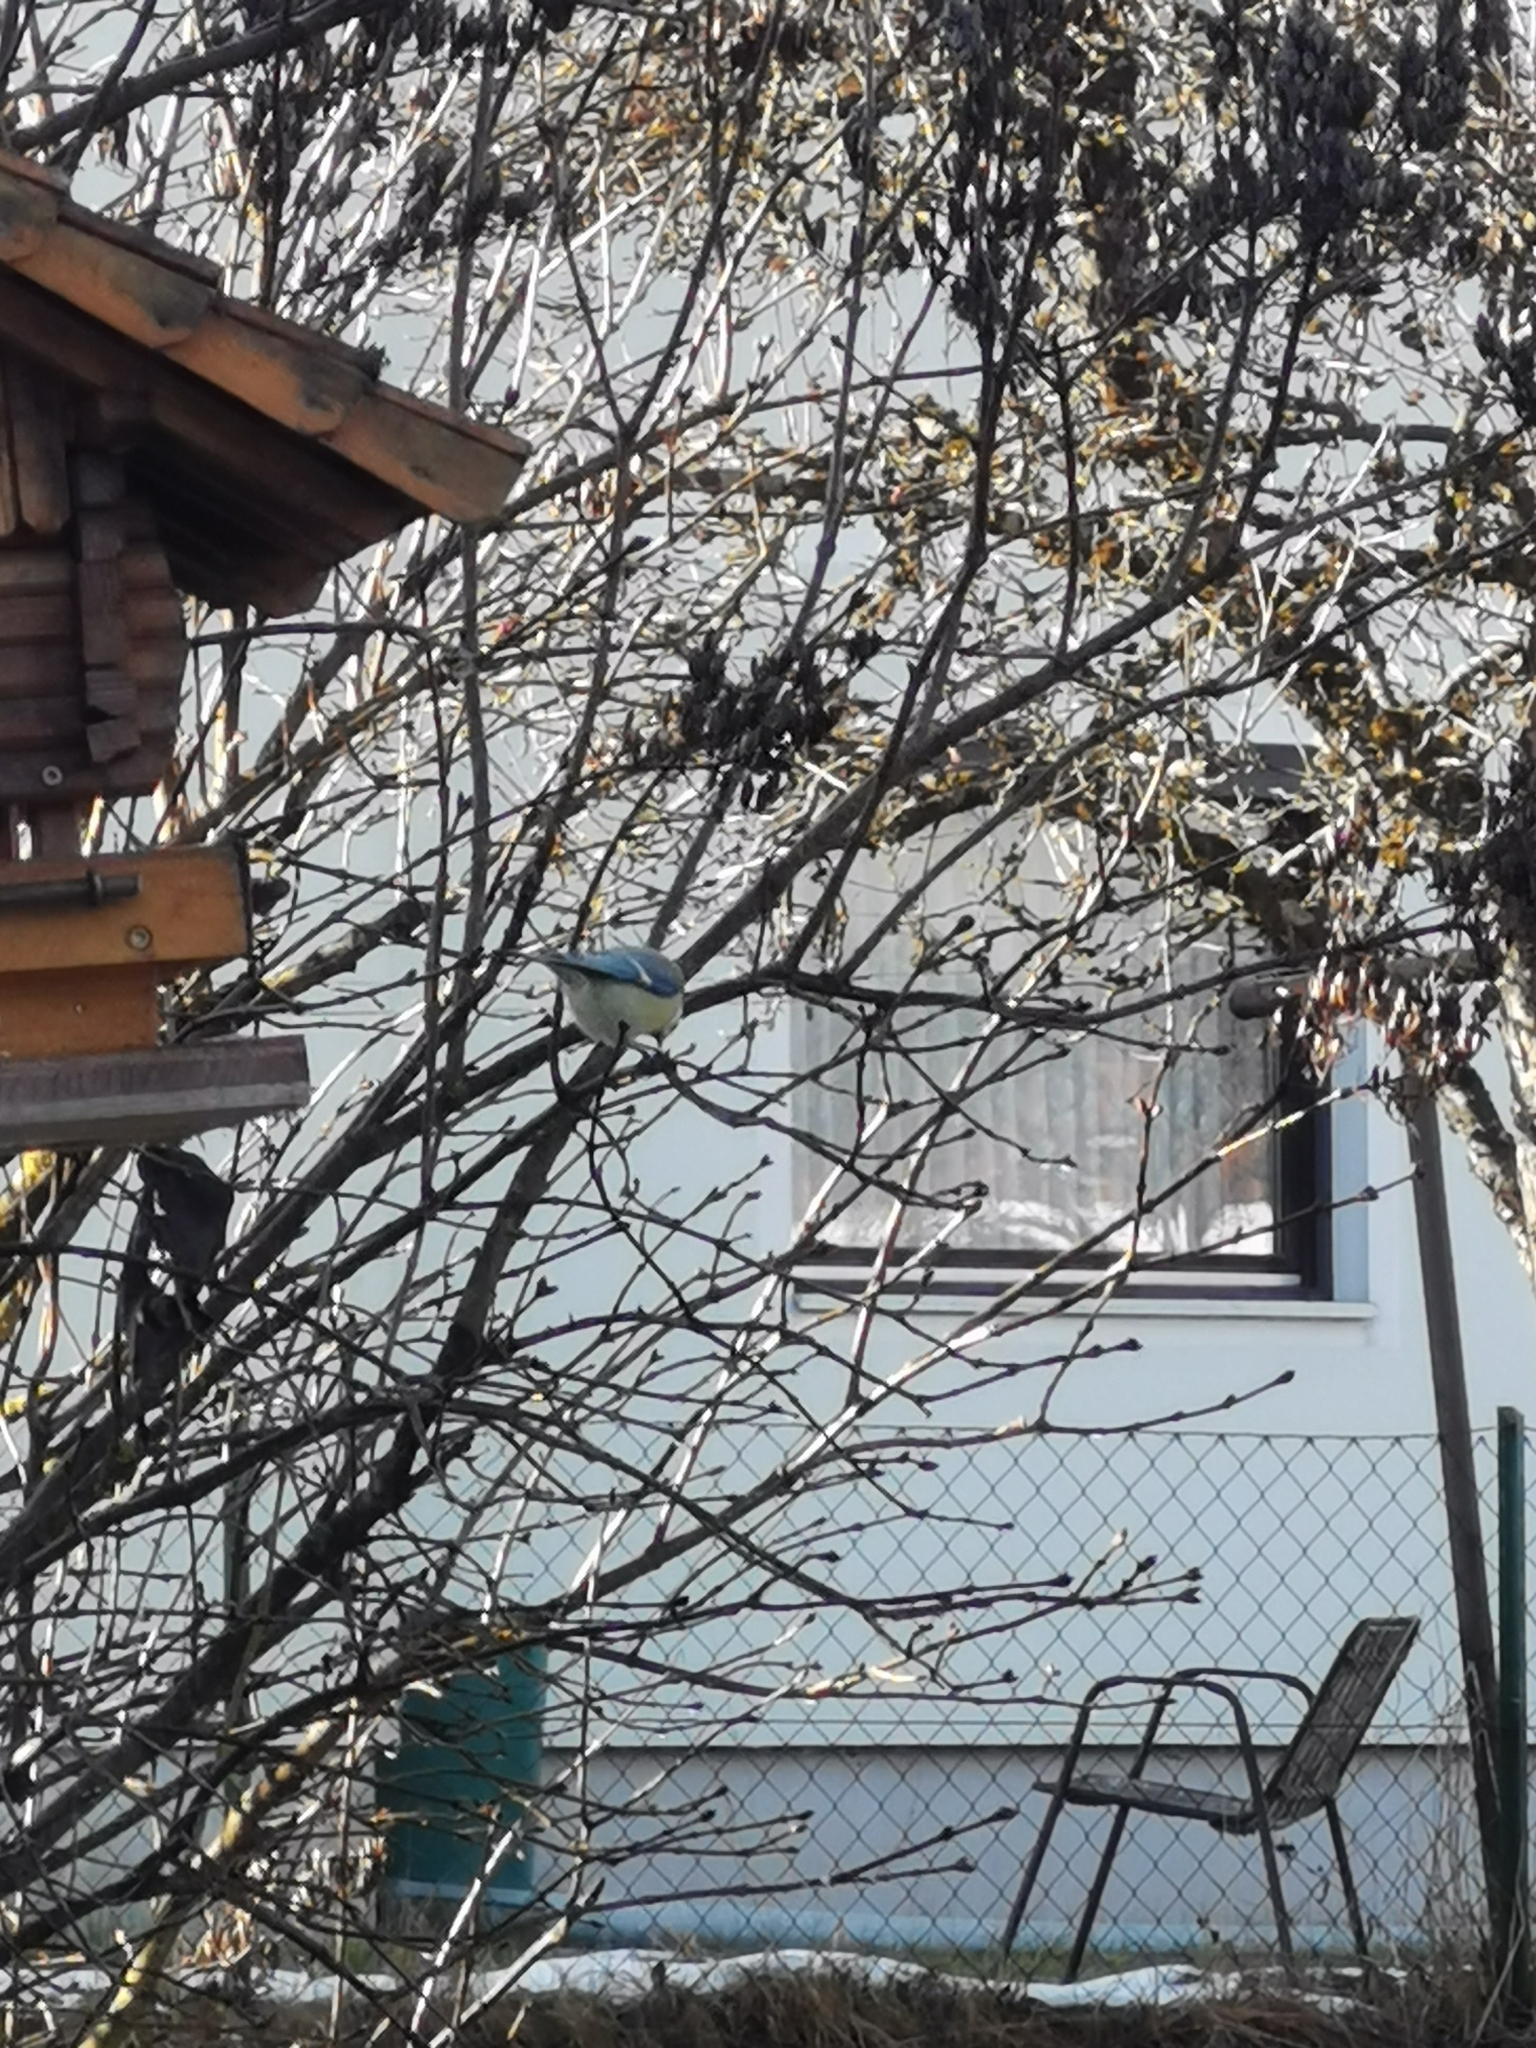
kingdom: Animalia
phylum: Chordata
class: Aves
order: Passeriformes
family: Paridae
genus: Cyanistes
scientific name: Cyanistes caeruleus
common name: Eurasian blue tit
